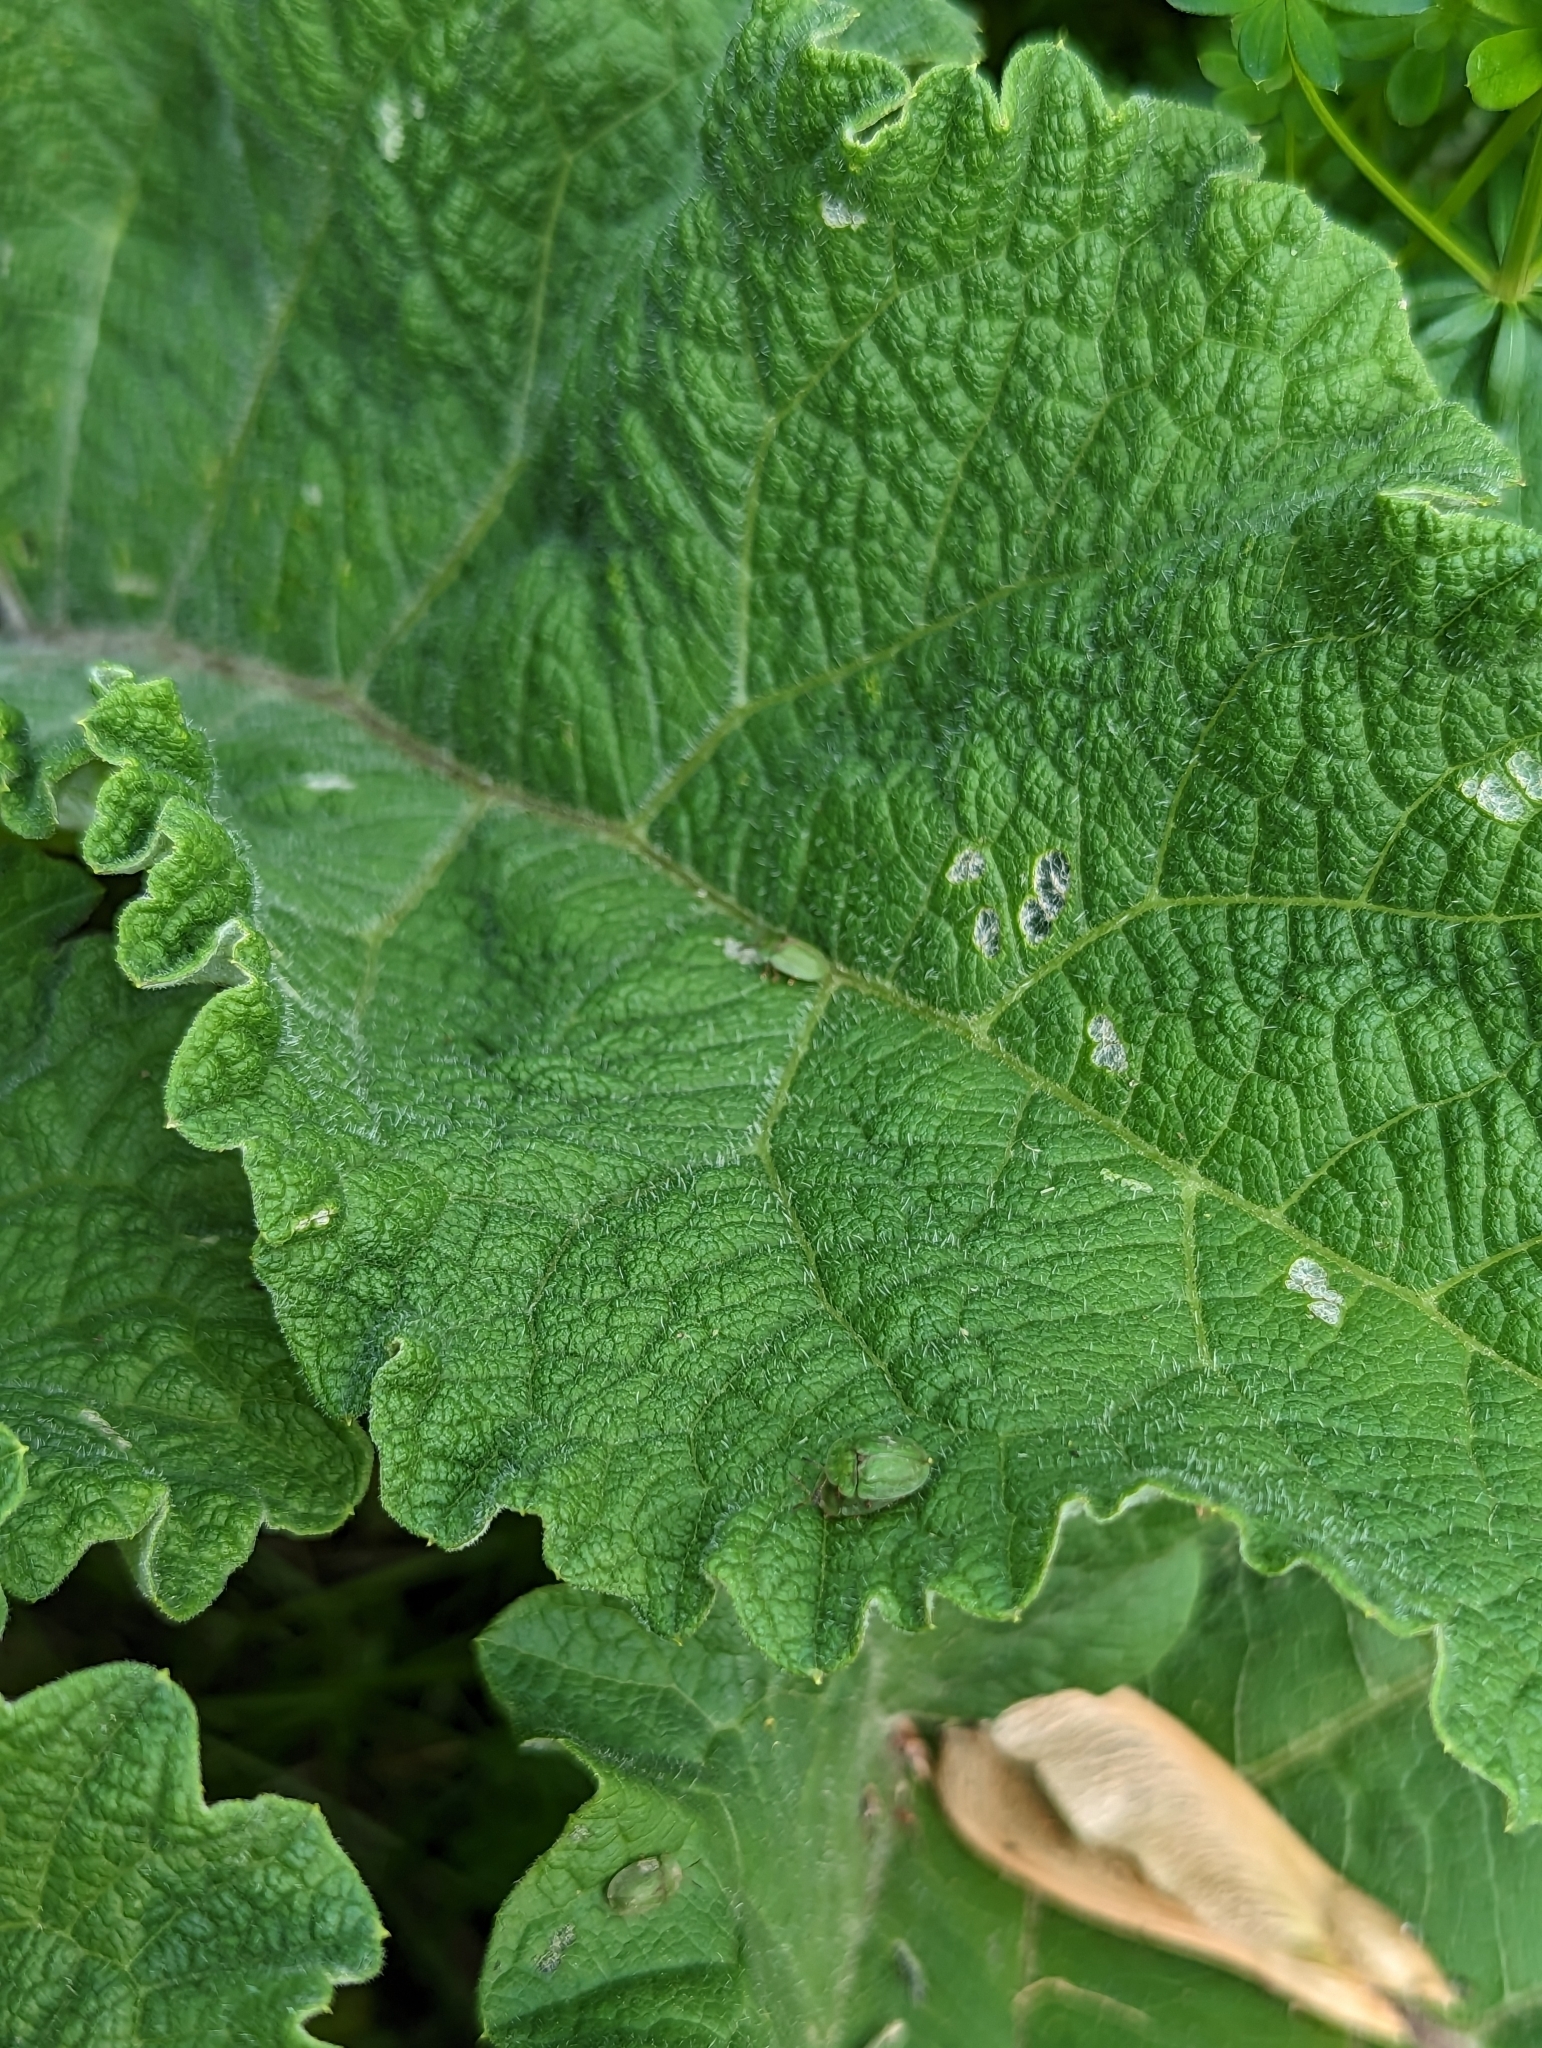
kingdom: Animalia
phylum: Arthropoda
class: Insecta
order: Coleoptera
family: Chrysomelidae
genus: Cassida
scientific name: Cassida rubiginosa
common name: Thistle tortoise beetle
